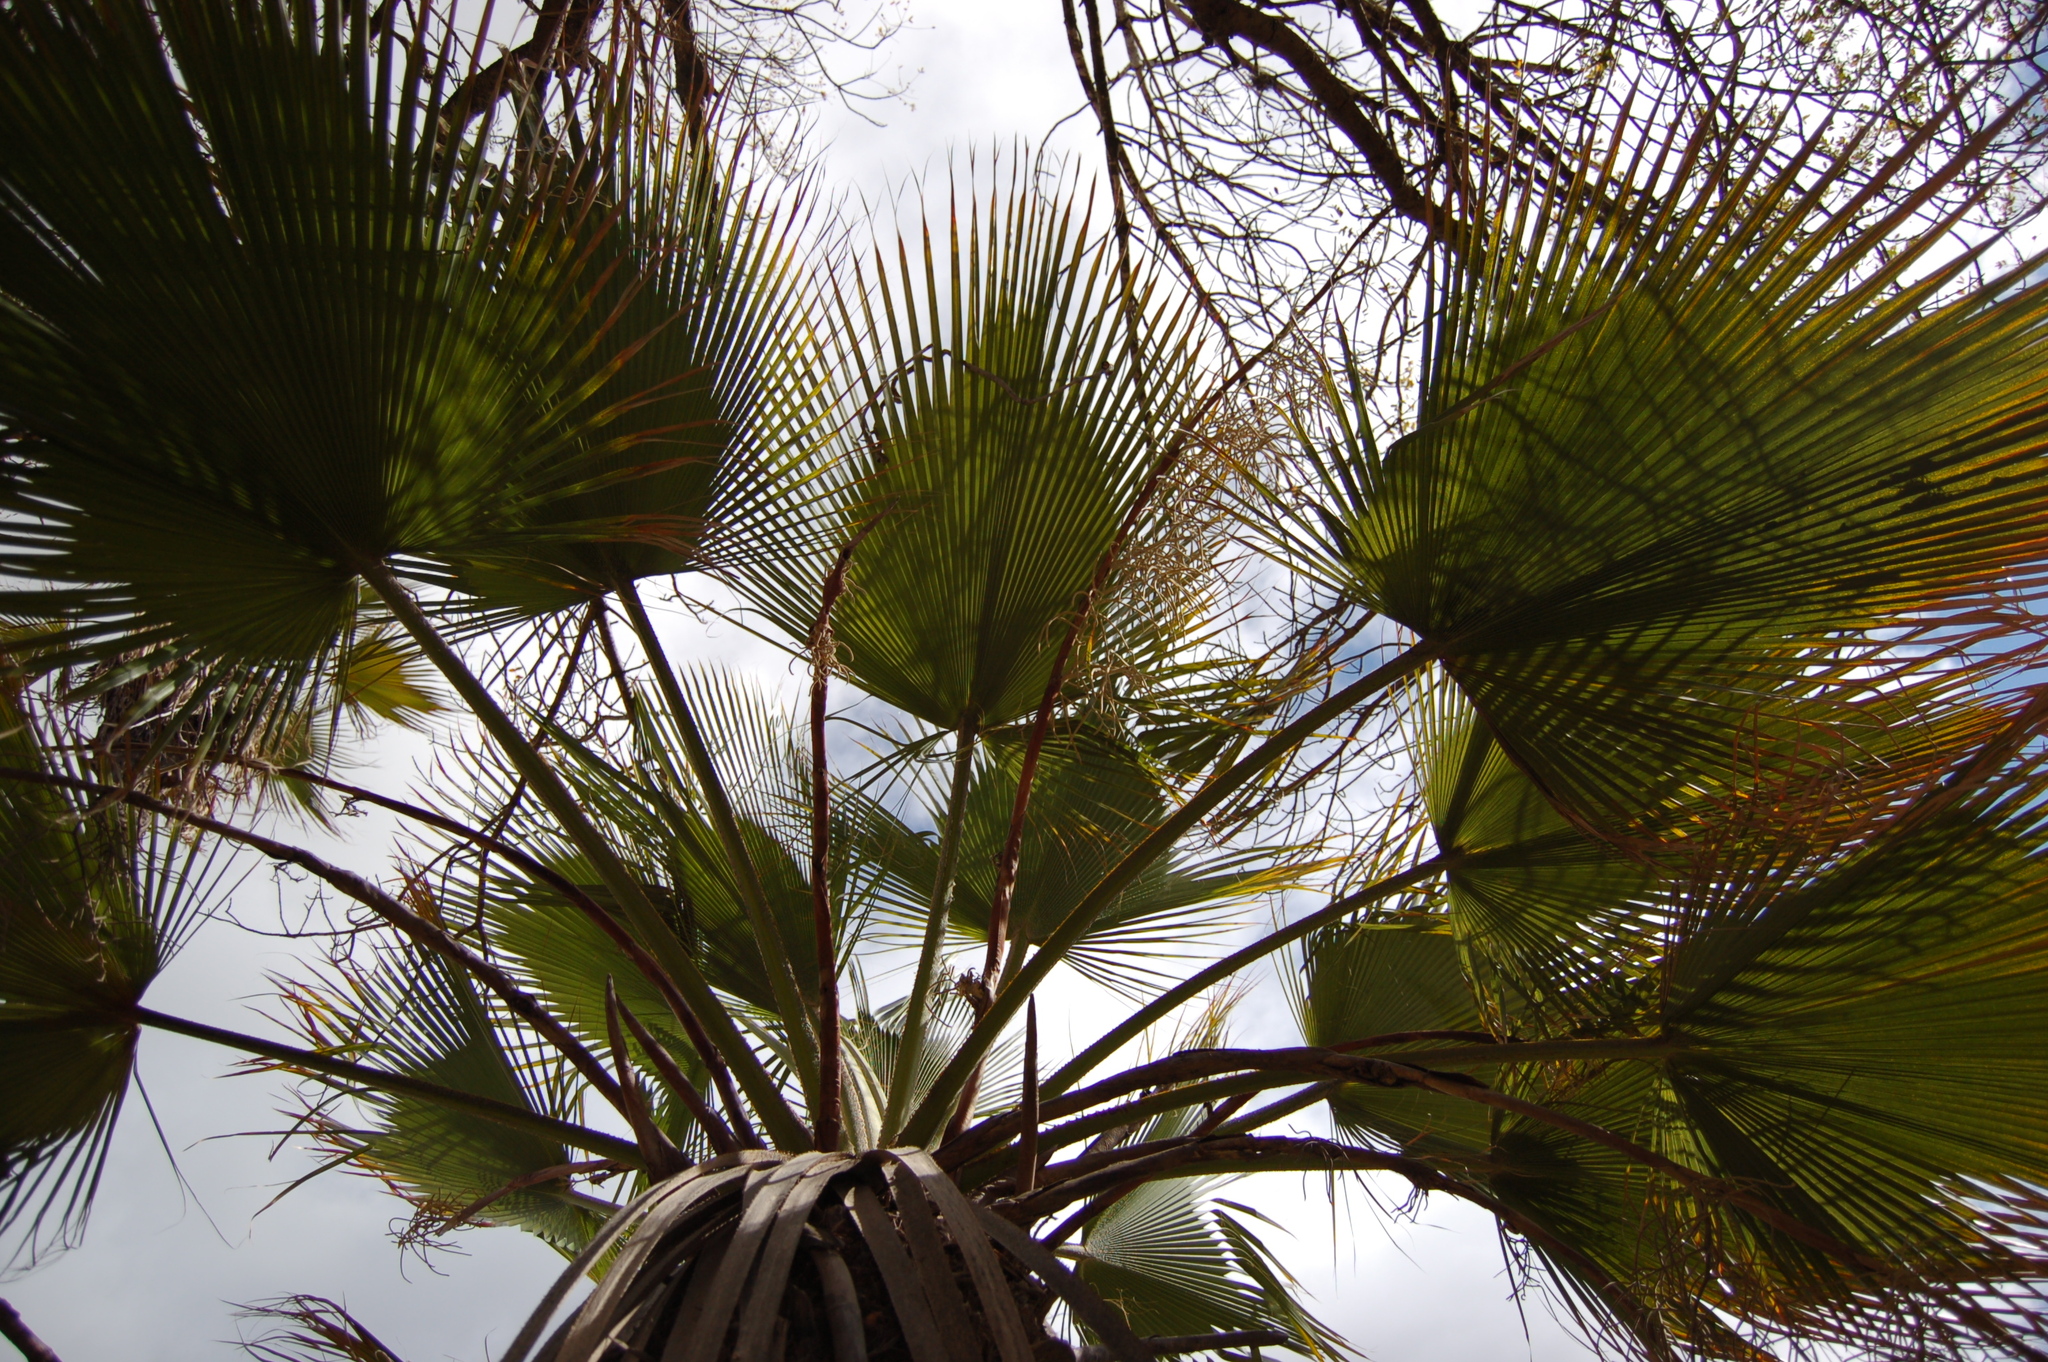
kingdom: Plantae
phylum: Tracheophyta
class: Liliopsida
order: Arecales
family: Arecaceae
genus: Brahea
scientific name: Brahea dulcis
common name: Apak palm
